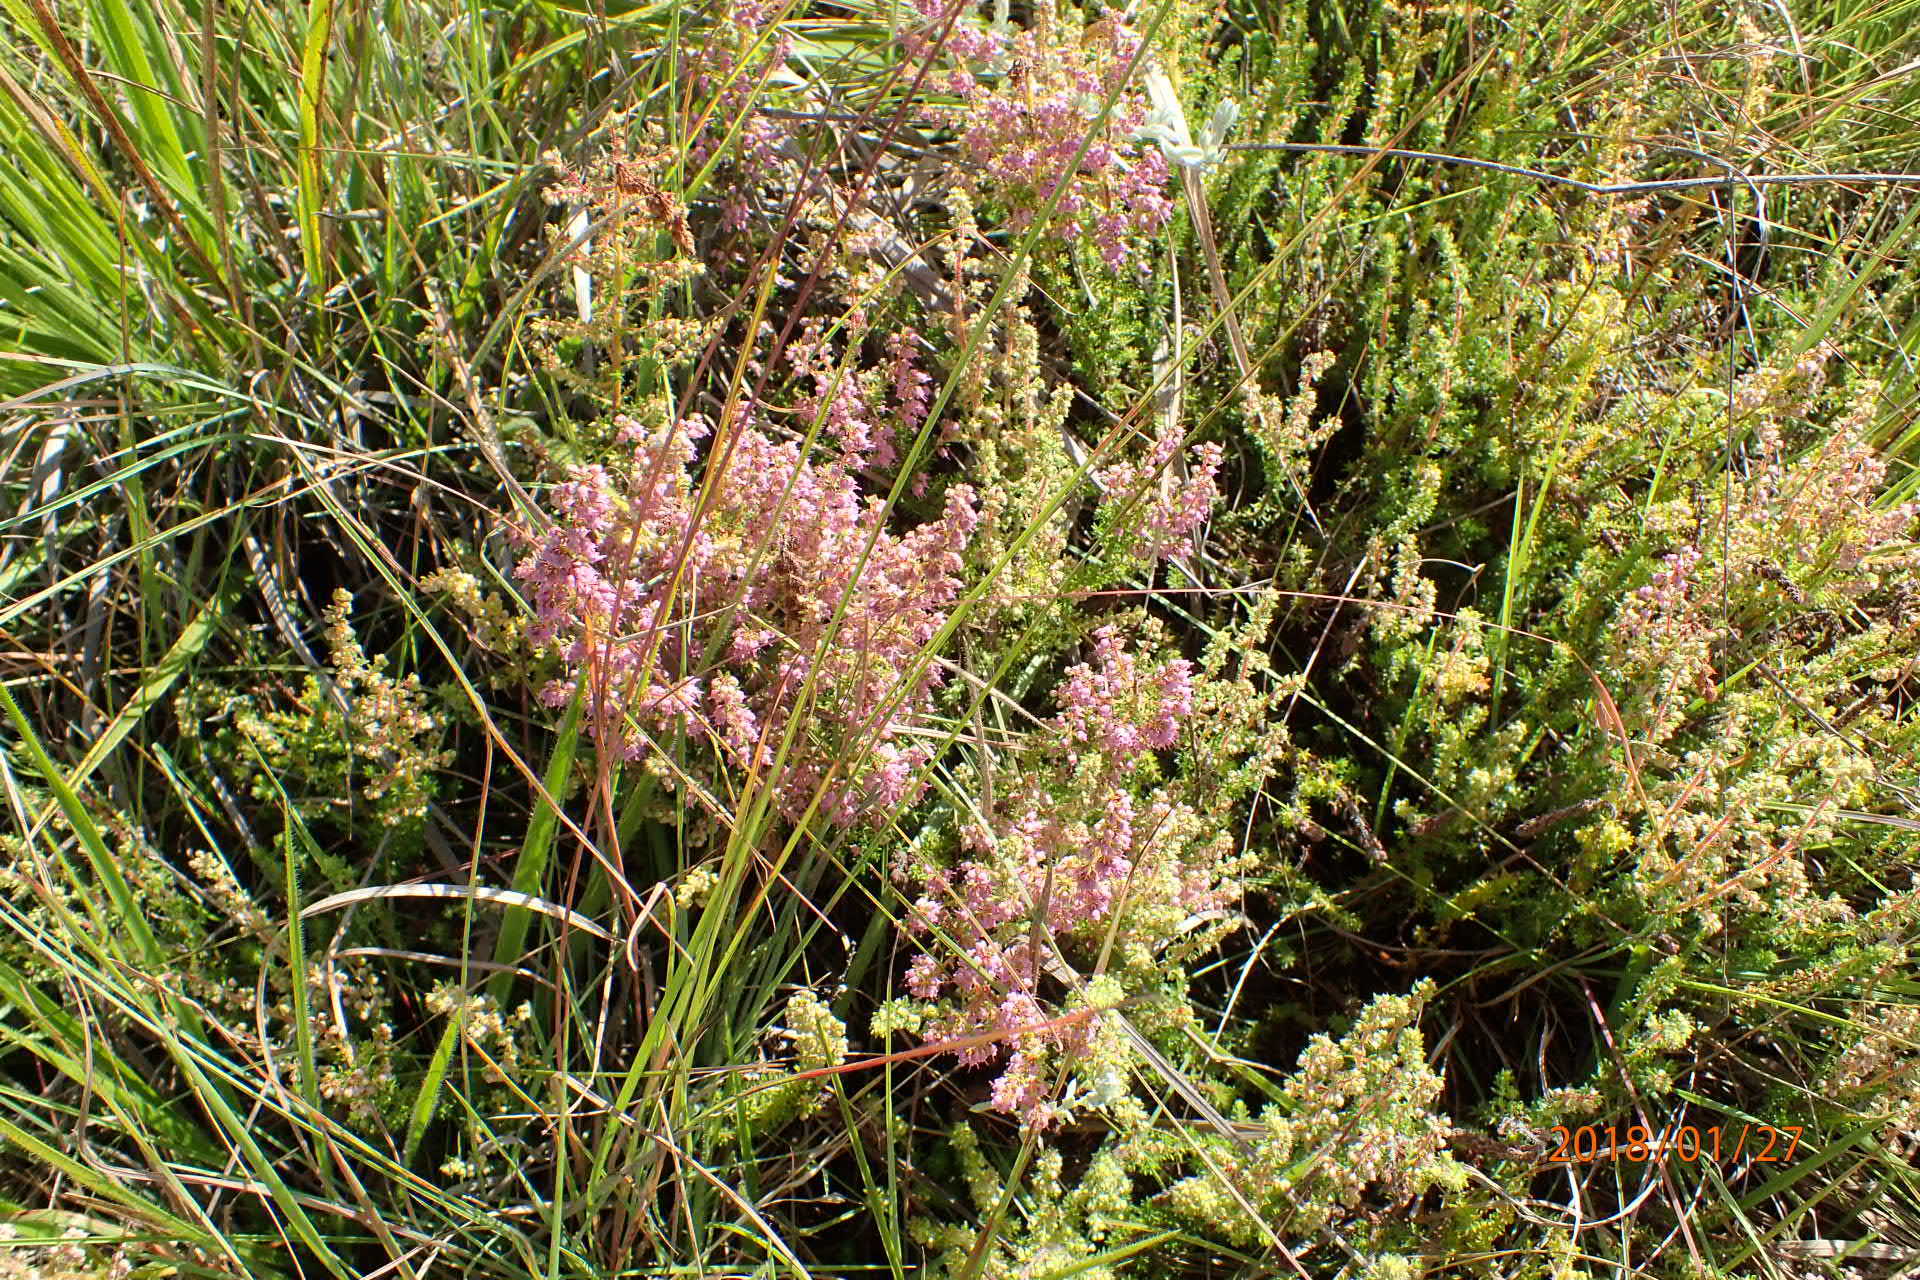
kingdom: Plantae
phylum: Tracheophyta
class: Magnoliopsida
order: Ericales
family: Ericaceae
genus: Erica
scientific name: Erica aestiva
